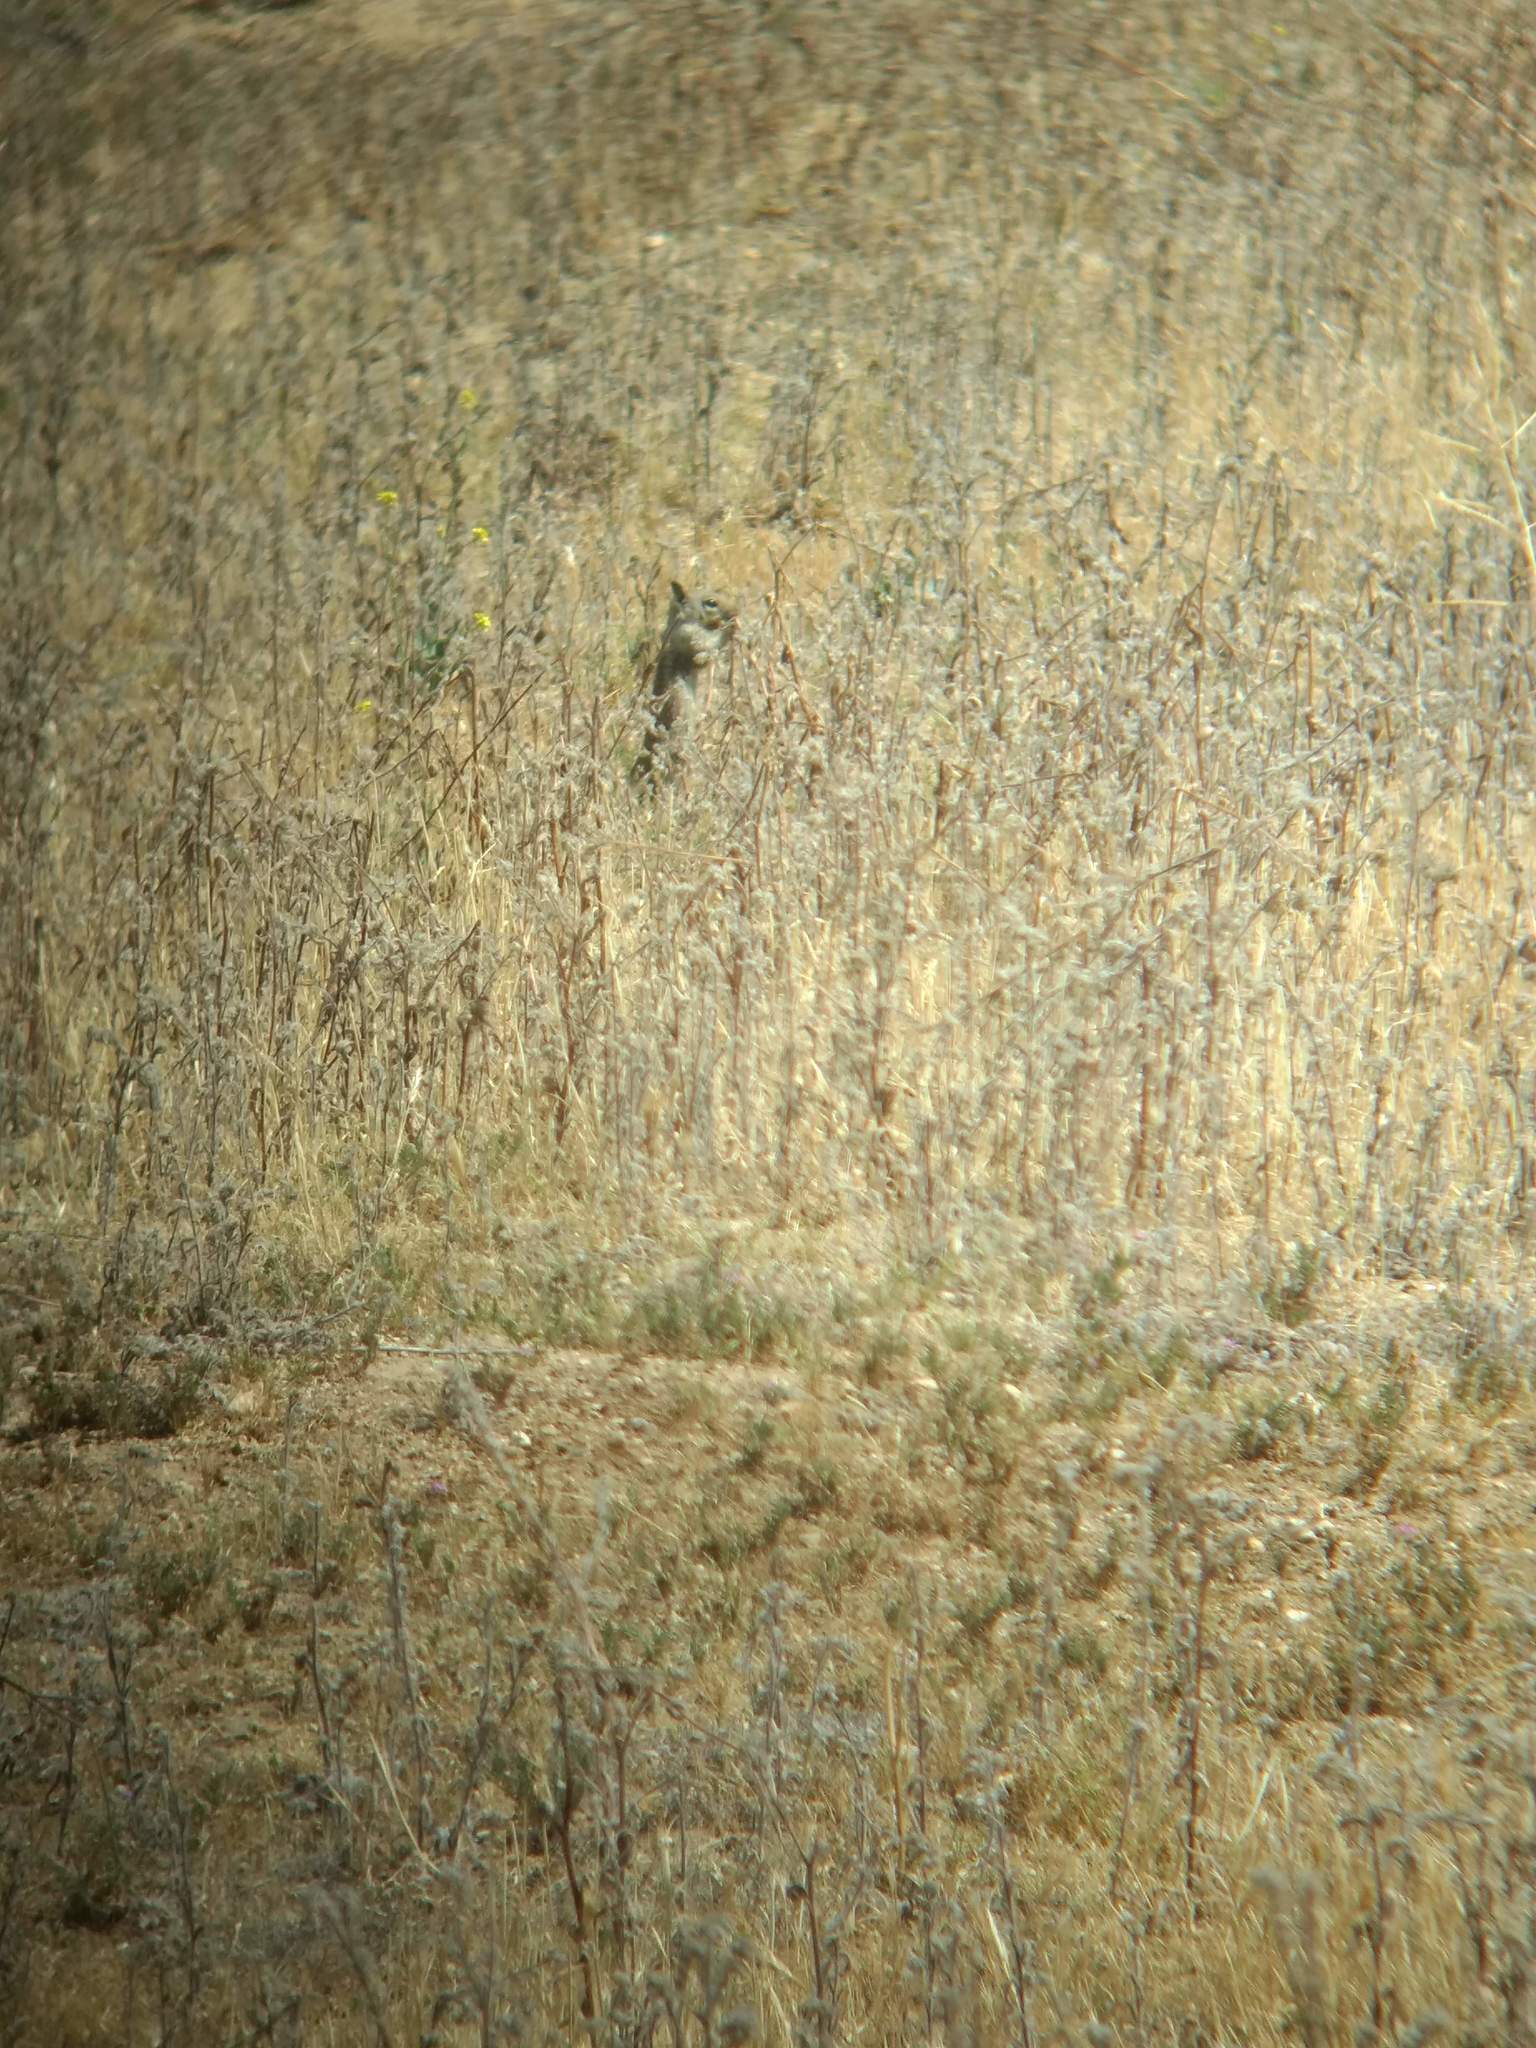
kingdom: Animalia
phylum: Chordata
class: Mammalia
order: Rodentia
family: Sciuridae
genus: Otospermophilus
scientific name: Otospermophilus beecheyi
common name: California ground squirrel
